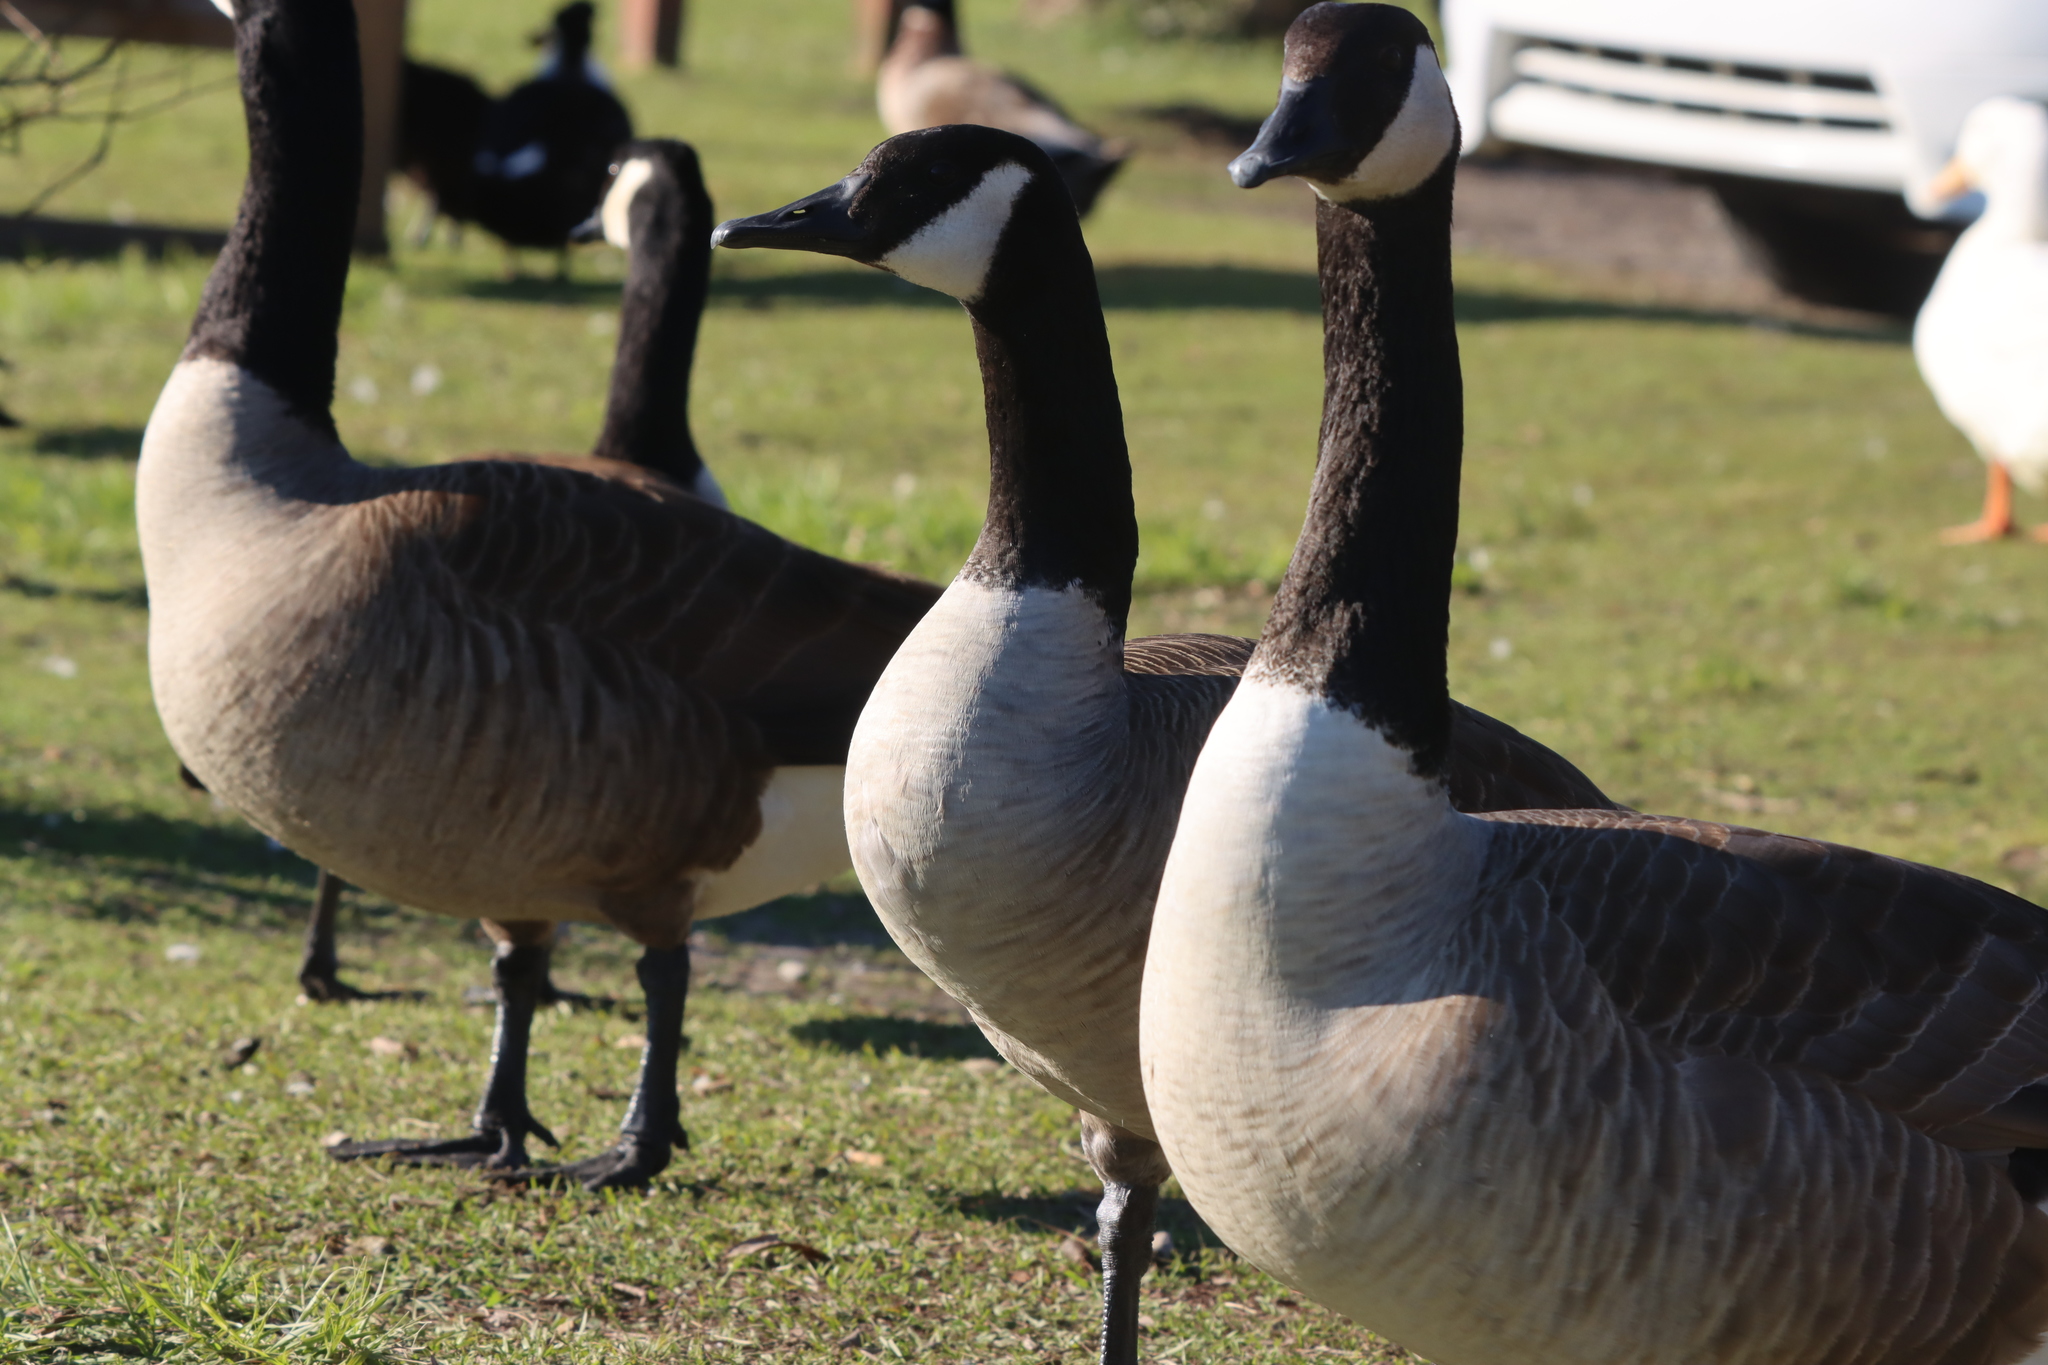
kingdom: Animalia
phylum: Chordata
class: Aves
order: Anseriformes
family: Anatidae
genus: Branta
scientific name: Branta canadensis
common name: Canada goose
